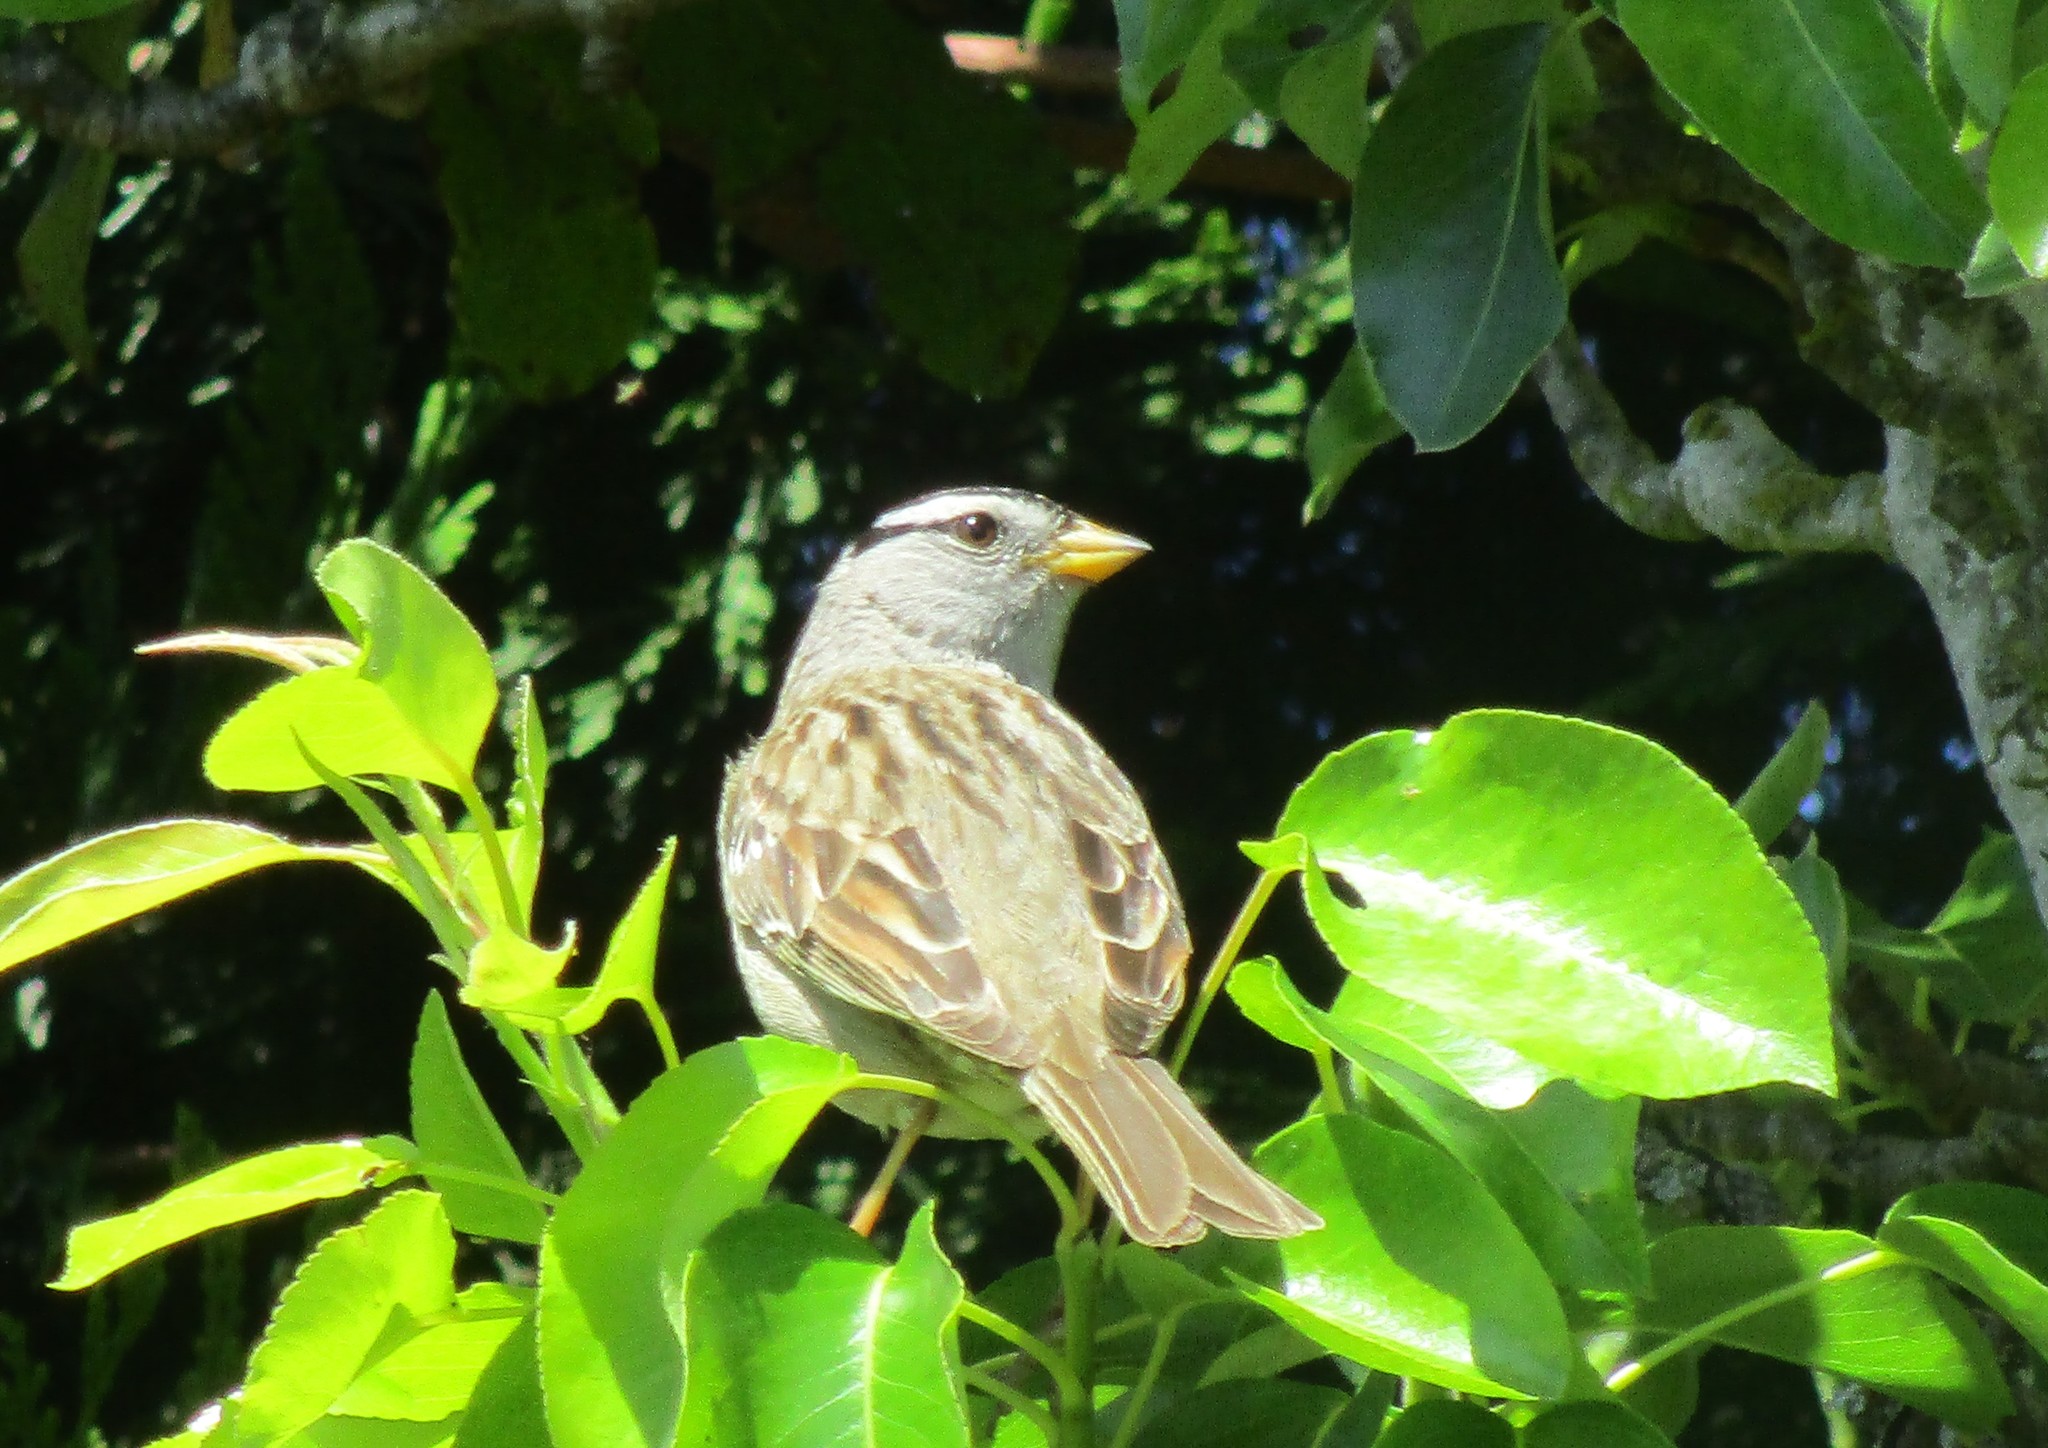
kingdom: Animalia
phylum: Chordata
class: Aves
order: Passeriformes
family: Passerellidae
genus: Zonotrichia
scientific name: Zonotrichia leucophrys
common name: White-crowned sparrow
